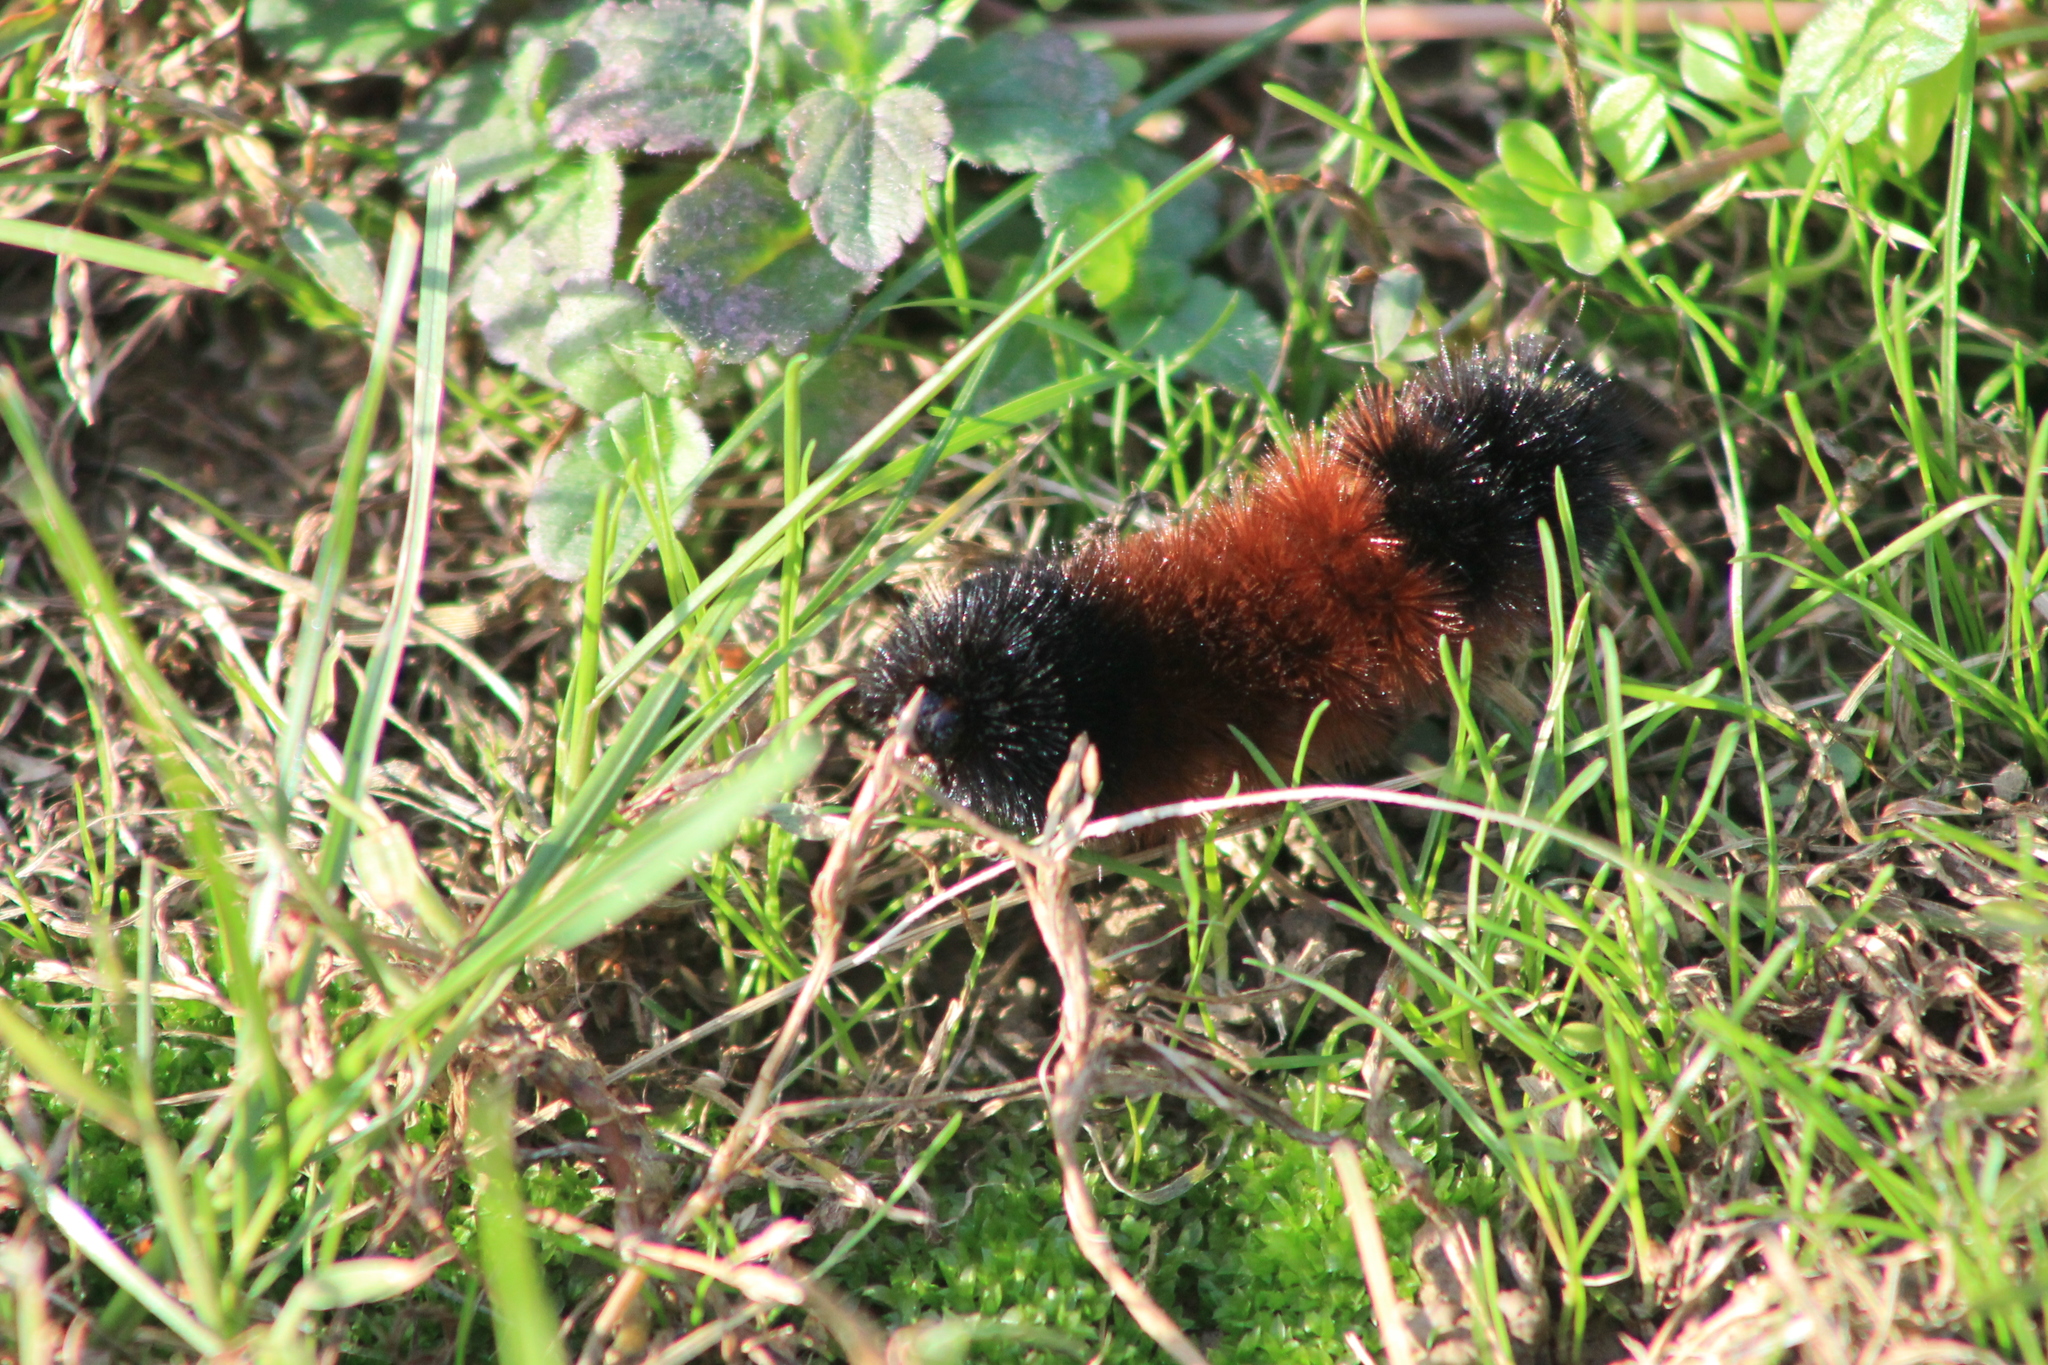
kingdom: Animalia
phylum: Arthropoda
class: Insecta
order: Lepidoptera
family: Erebidae
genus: Pyrrharctia
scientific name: Pyrrharctia isabella
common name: Isabella tiger moth
